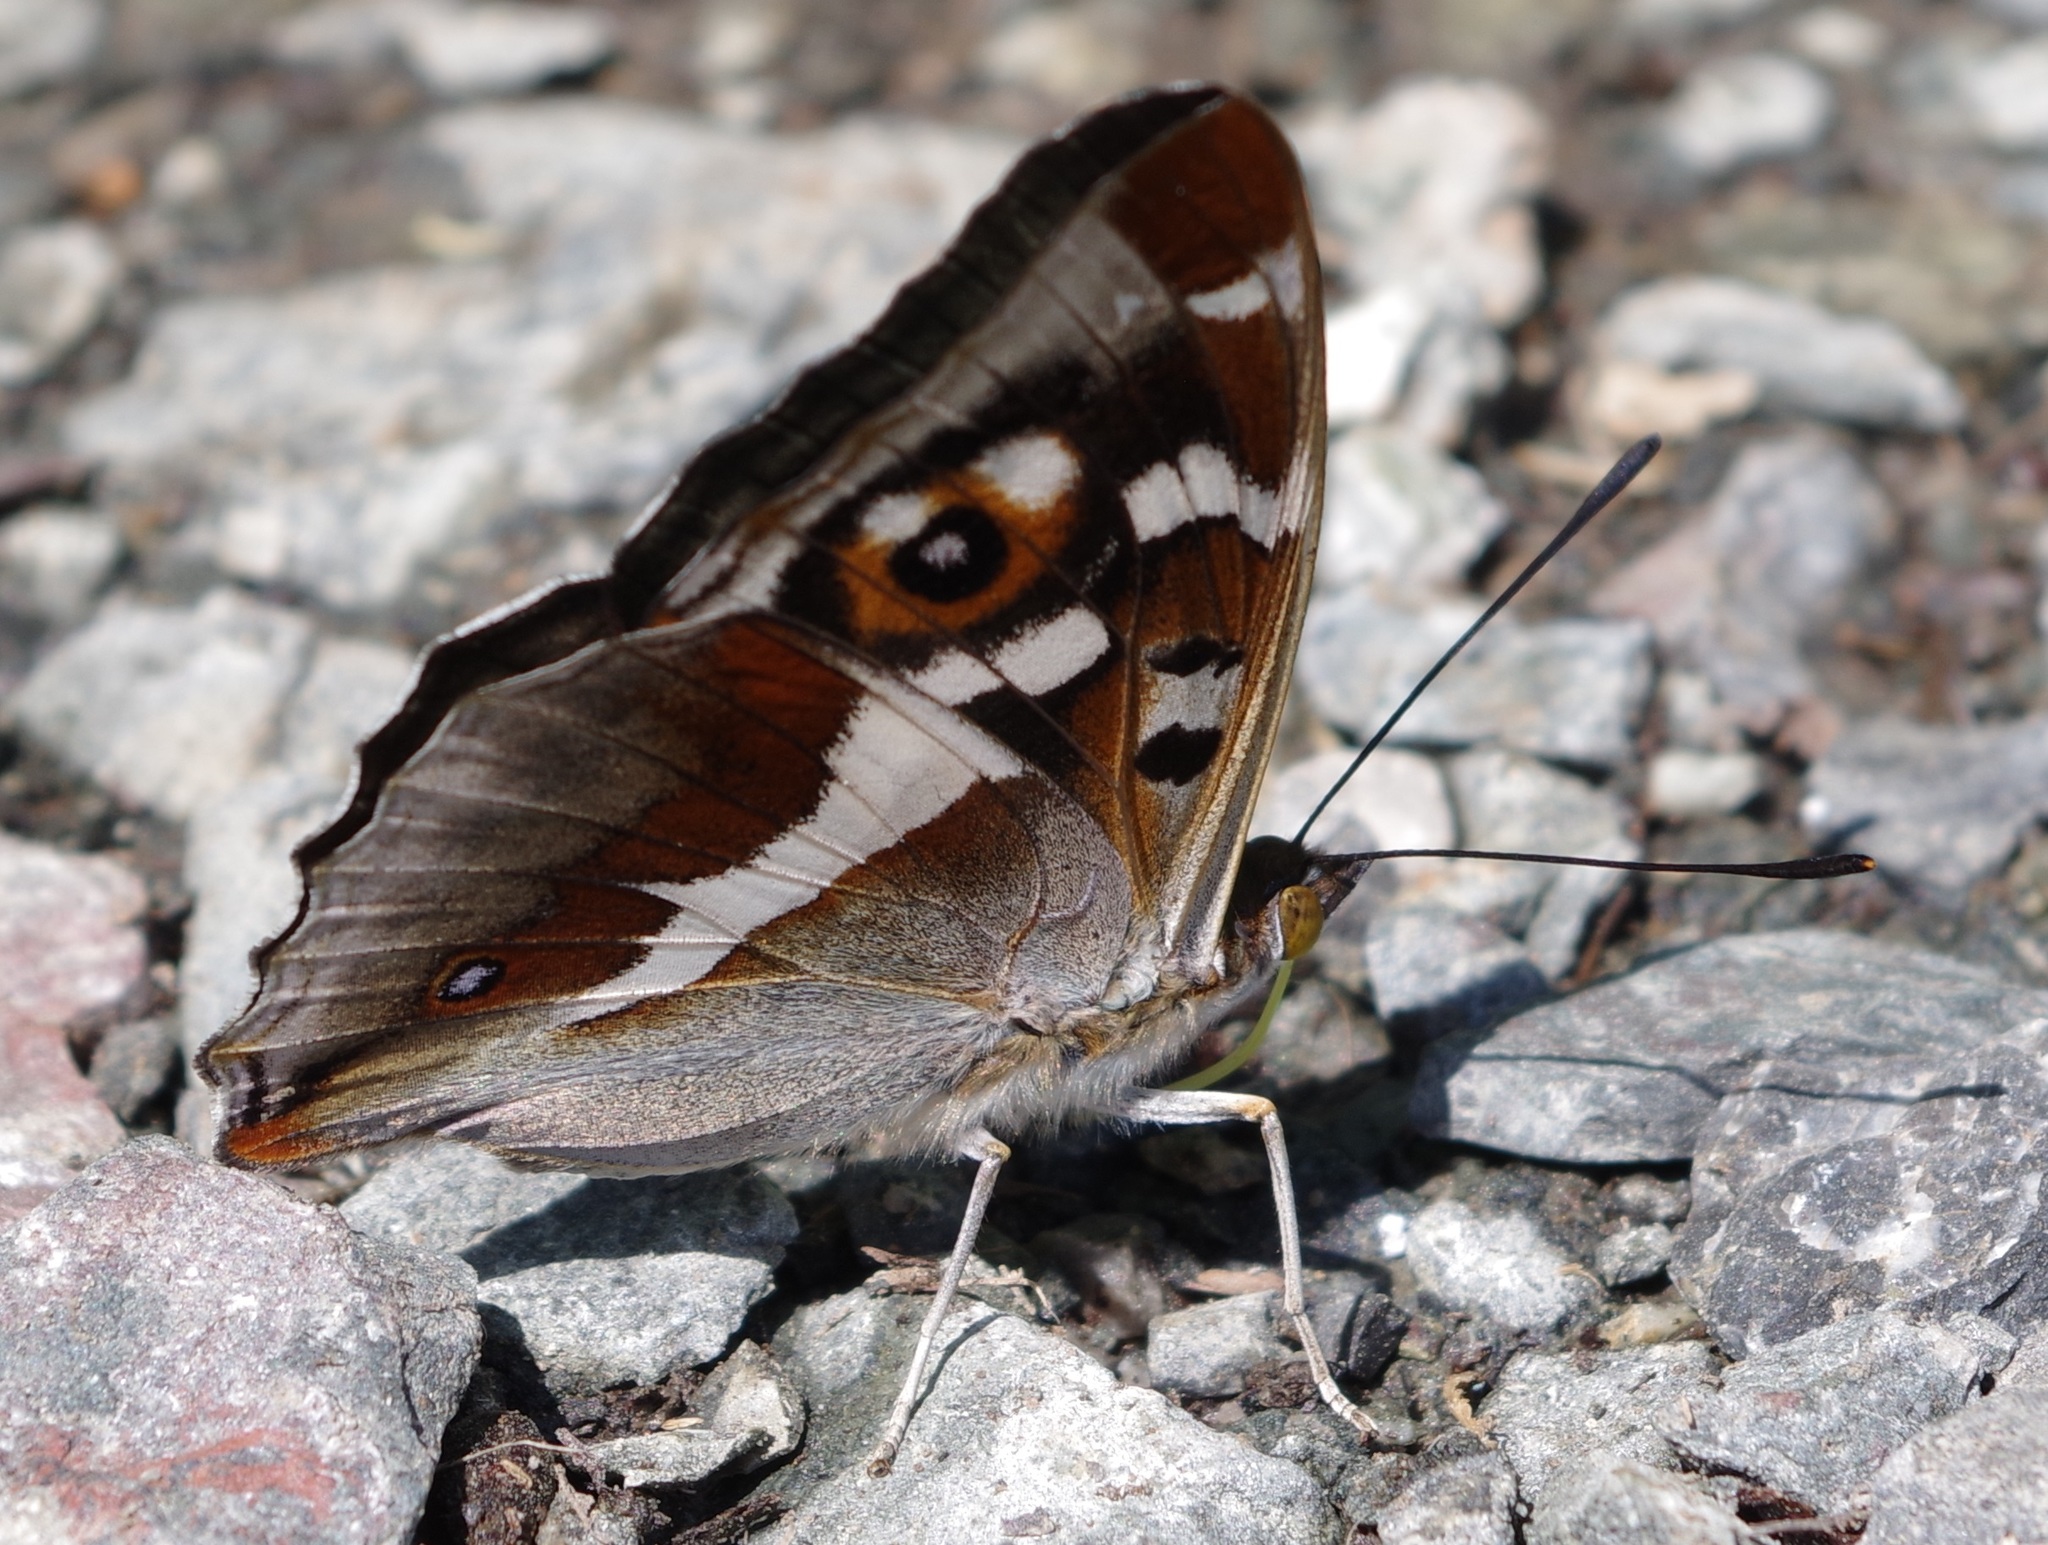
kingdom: Animalia
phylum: Arthropoda
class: Insecta
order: Lepidoptera
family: Nymphalidae
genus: Apatura
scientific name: Apatura iris
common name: Purple emperor
